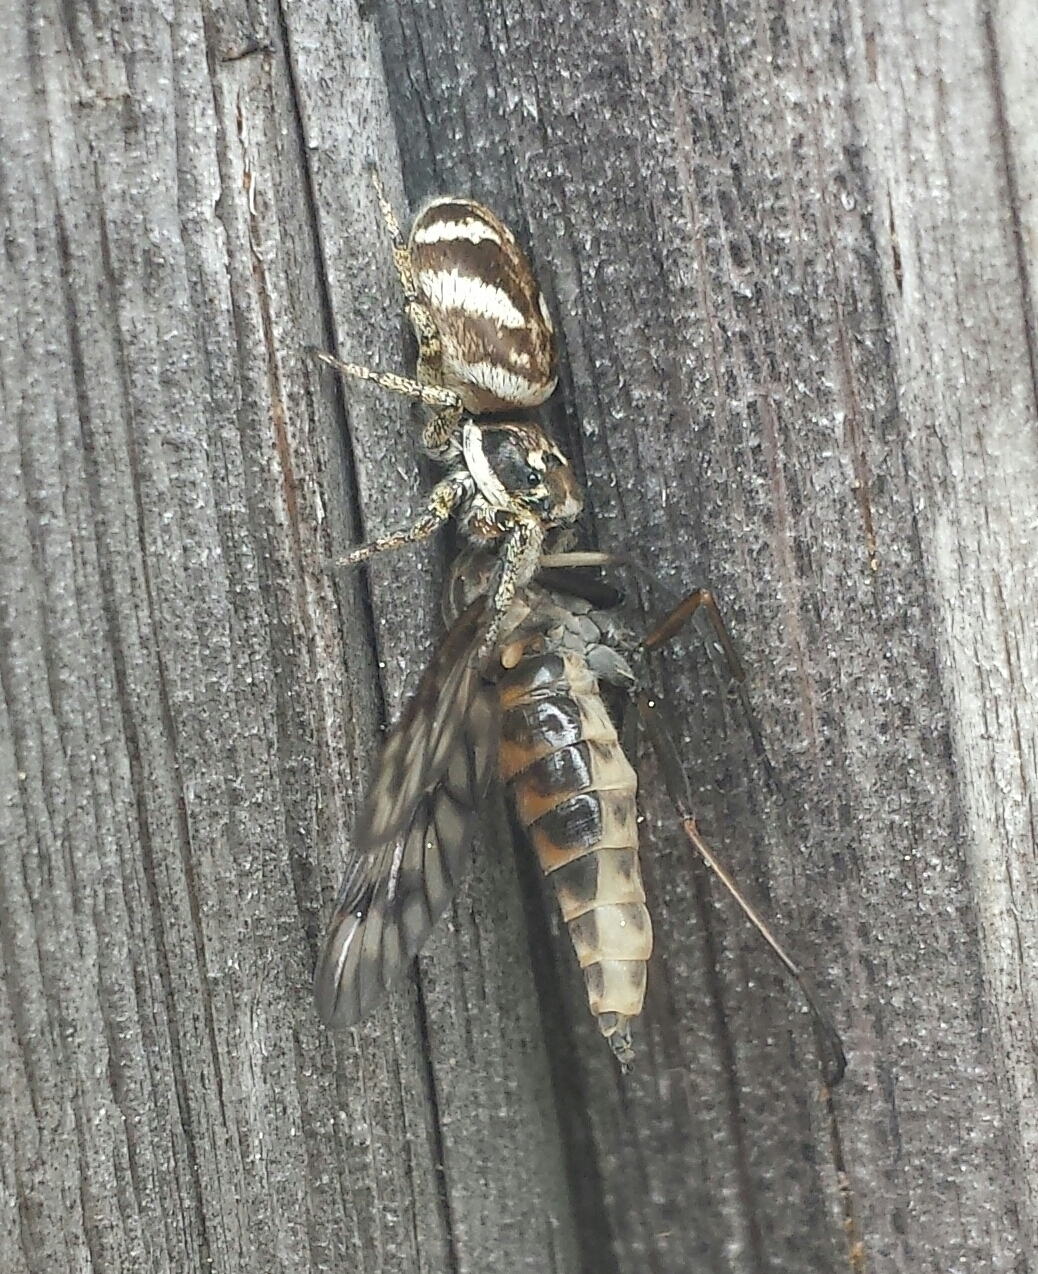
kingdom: Animalia
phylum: Arthropoda
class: Arachnida
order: Araneae
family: Salticidae
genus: Salticus
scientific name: Salticus scenicus
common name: Zebra jumper
